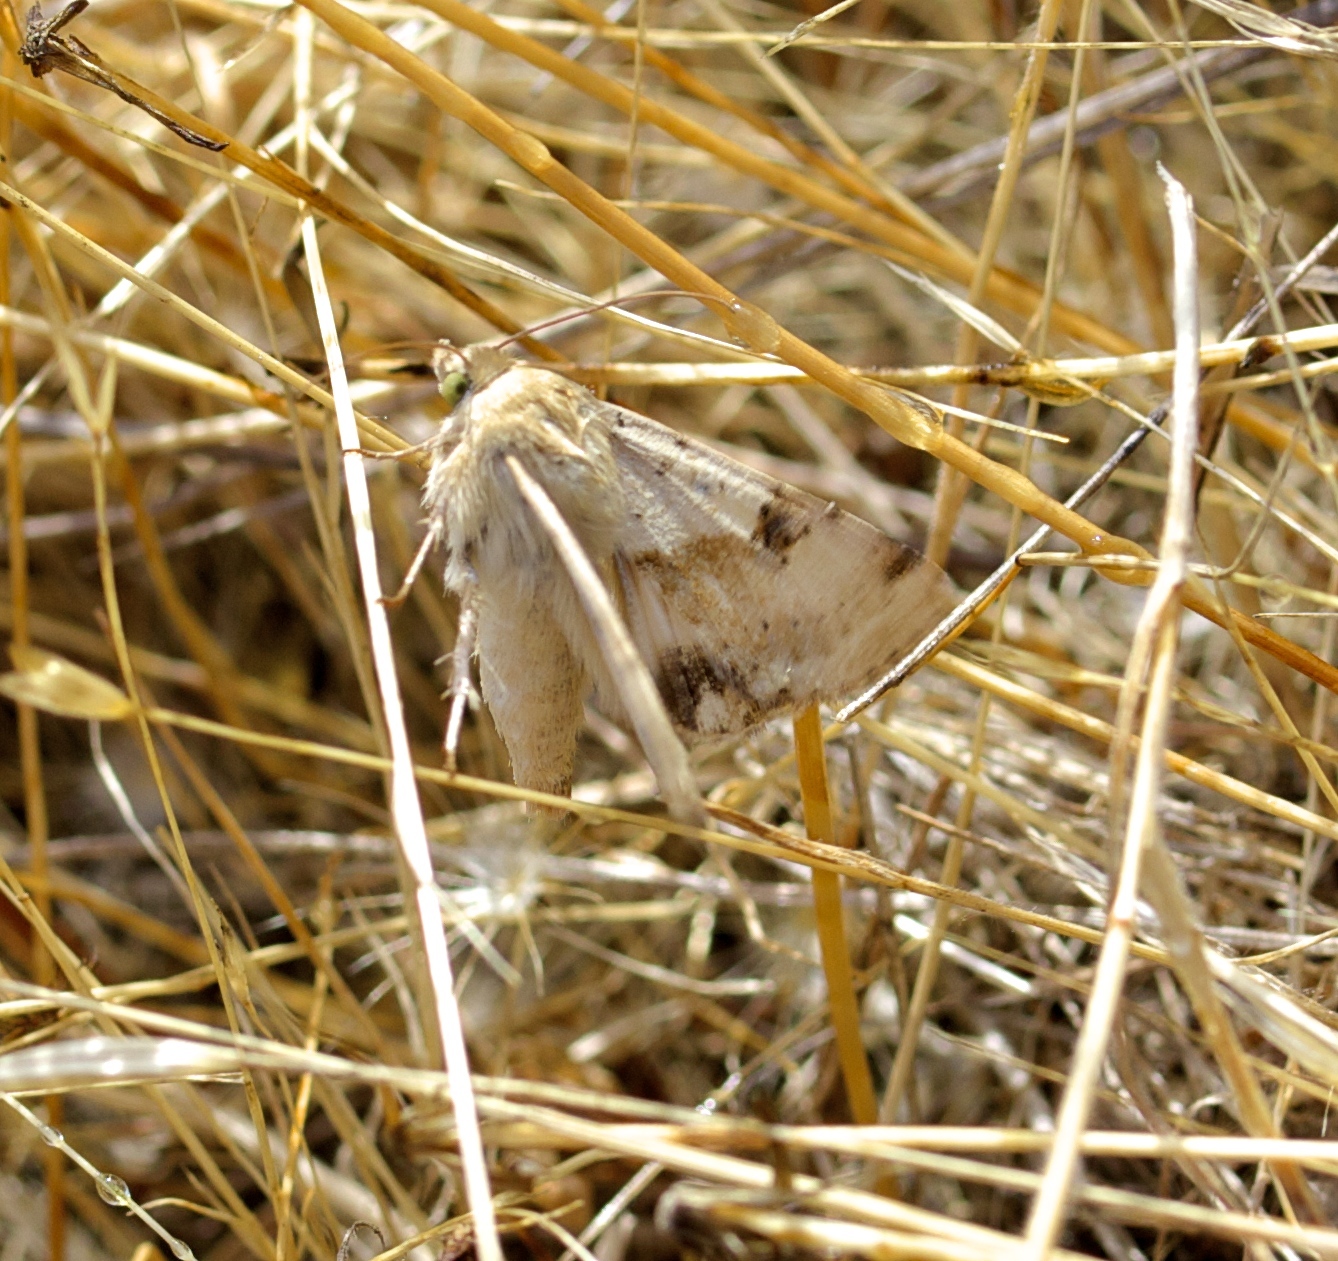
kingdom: Animalia
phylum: Arthropoda
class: Insecta
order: Lepidoptera
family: Noctuidae
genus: Heliothis
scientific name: Heliothis phloxiphaga
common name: Darker spotted straw moth
